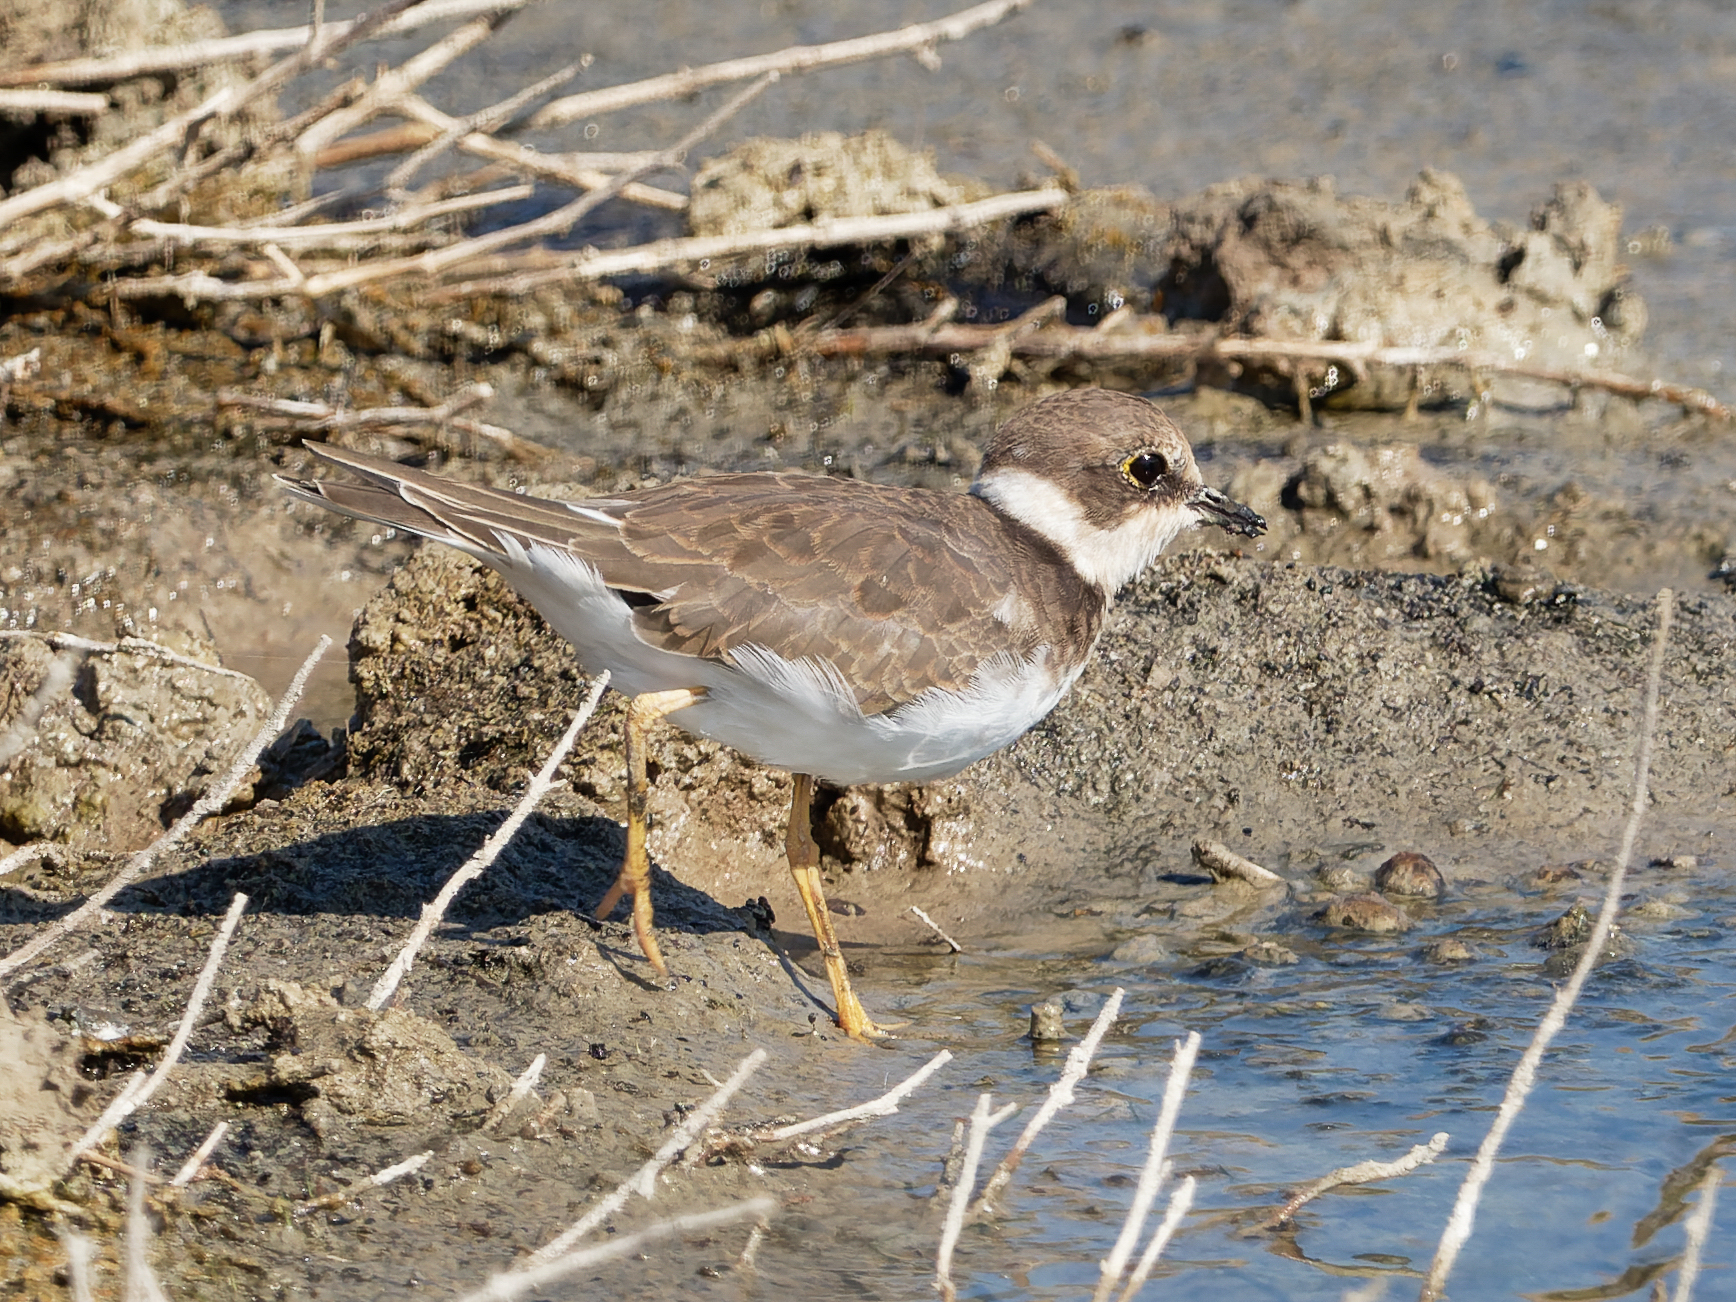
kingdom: Animalia
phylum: Chordata
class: Aves
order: Charadriiformes
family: Charadriidae
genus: Charadrius
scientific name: Charadrius dubius
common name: Little ringed plover
